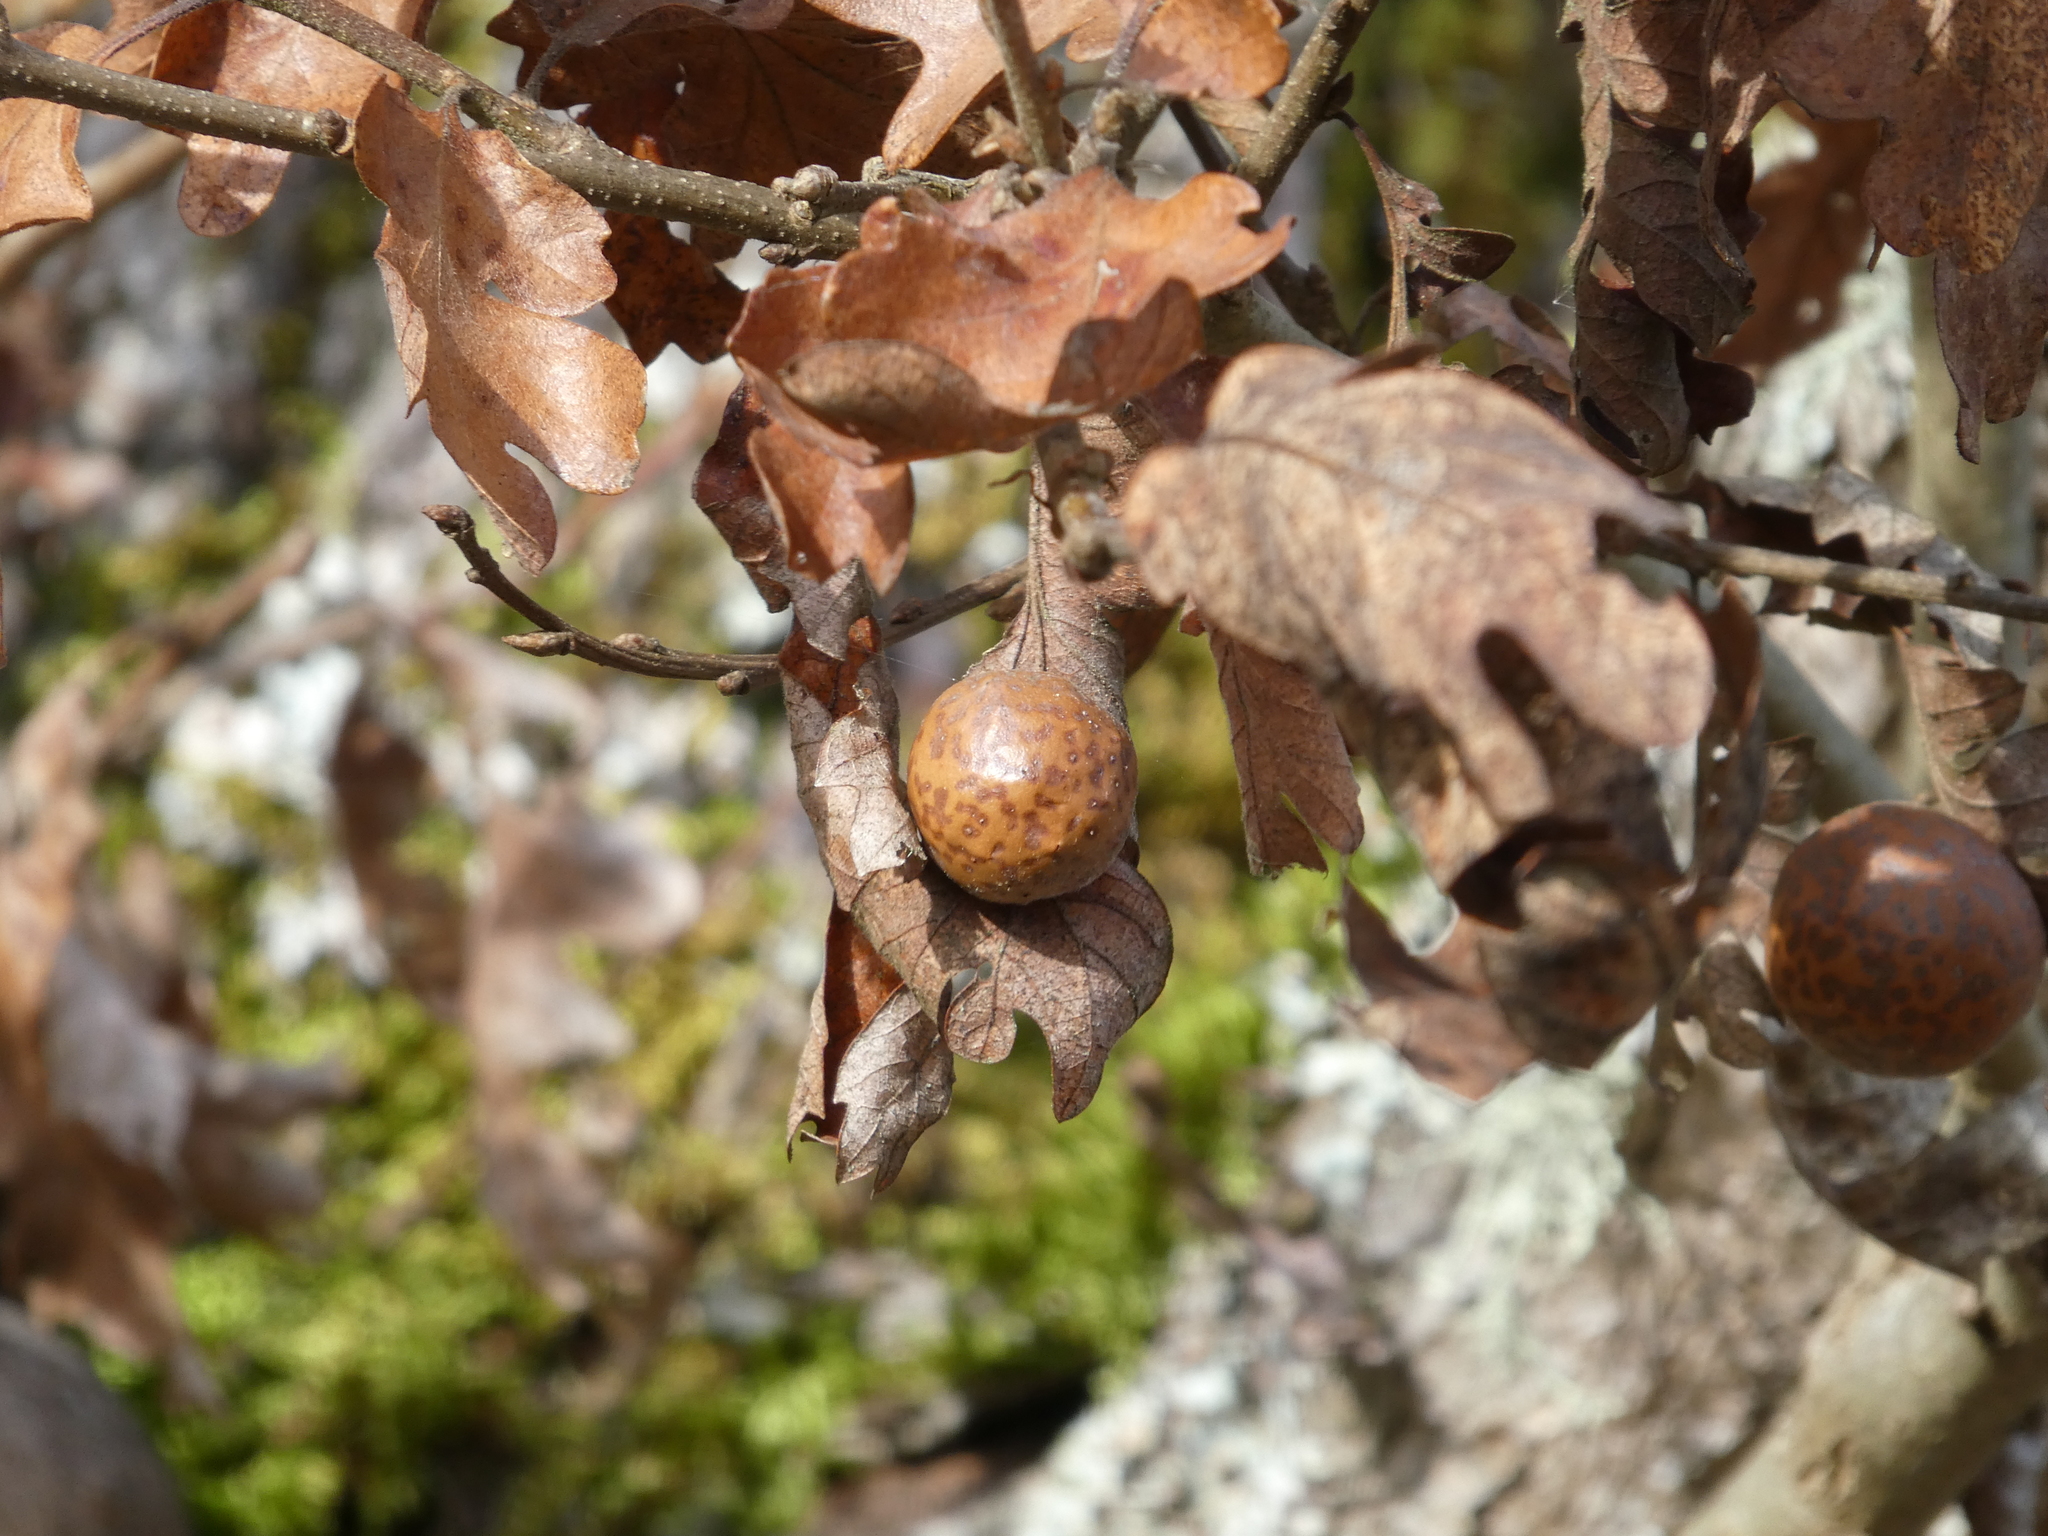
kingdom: Animalia
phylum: Arthropoda
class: Insecta
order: Hymenoptera
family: Cynipidae
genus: Cynips
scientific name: Cynips
